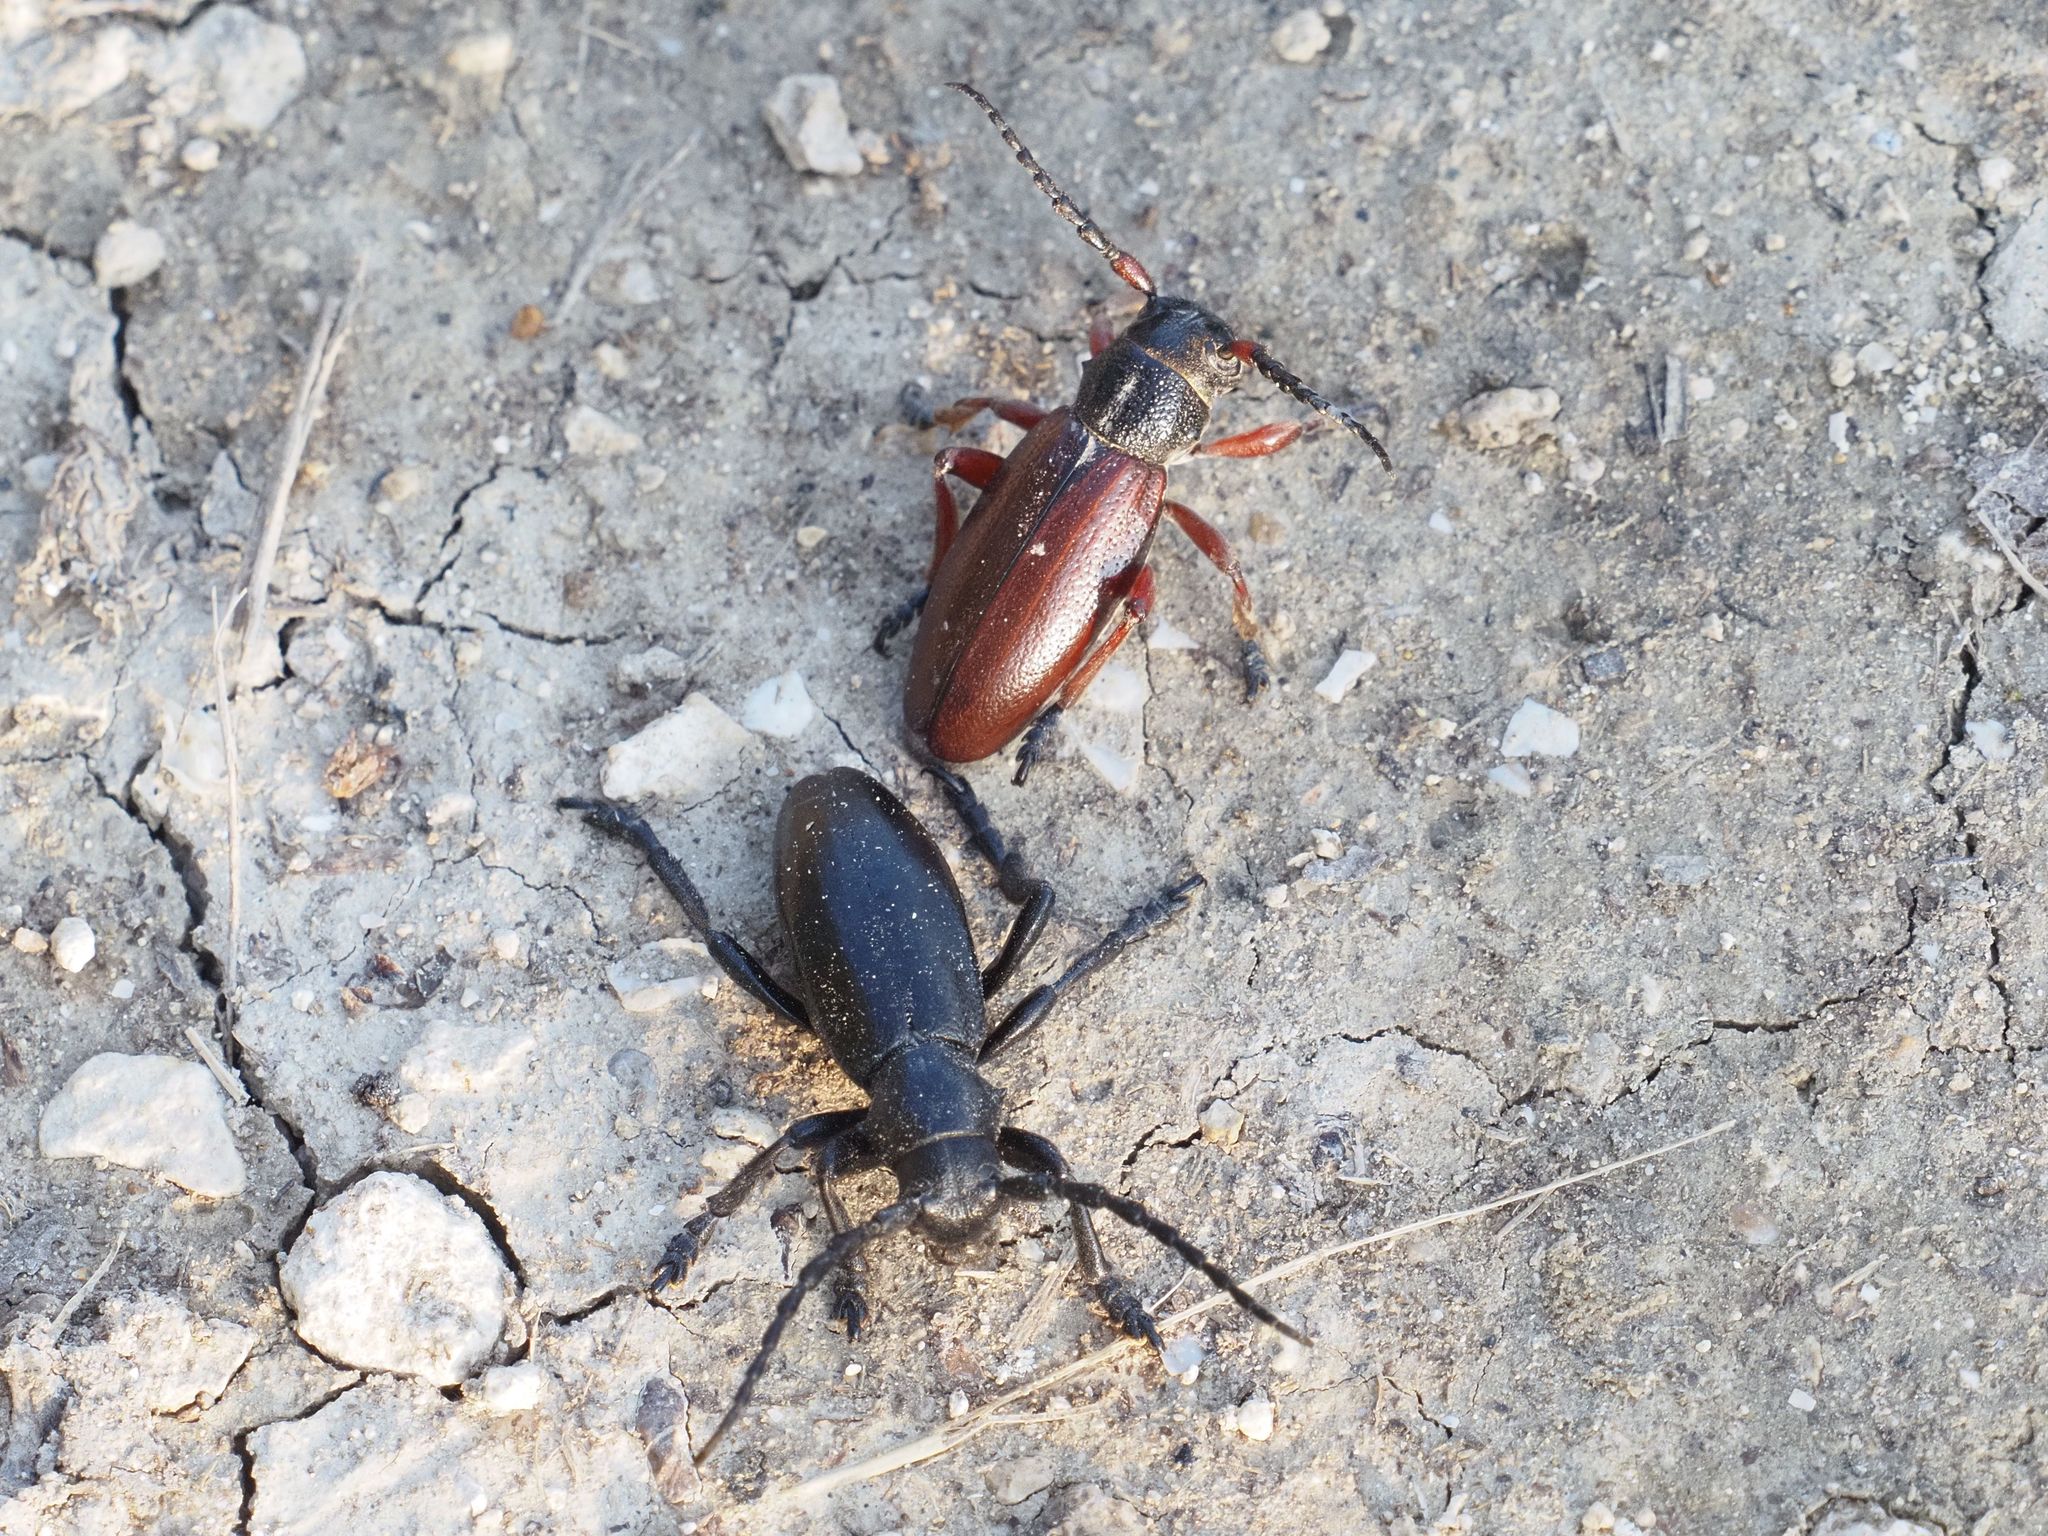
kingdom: Animalia
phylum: Arthropoda
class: Insecta
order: Coleoptera
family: Cerambycidae
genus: Dorcadion
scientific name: Dorcadion fulvum
